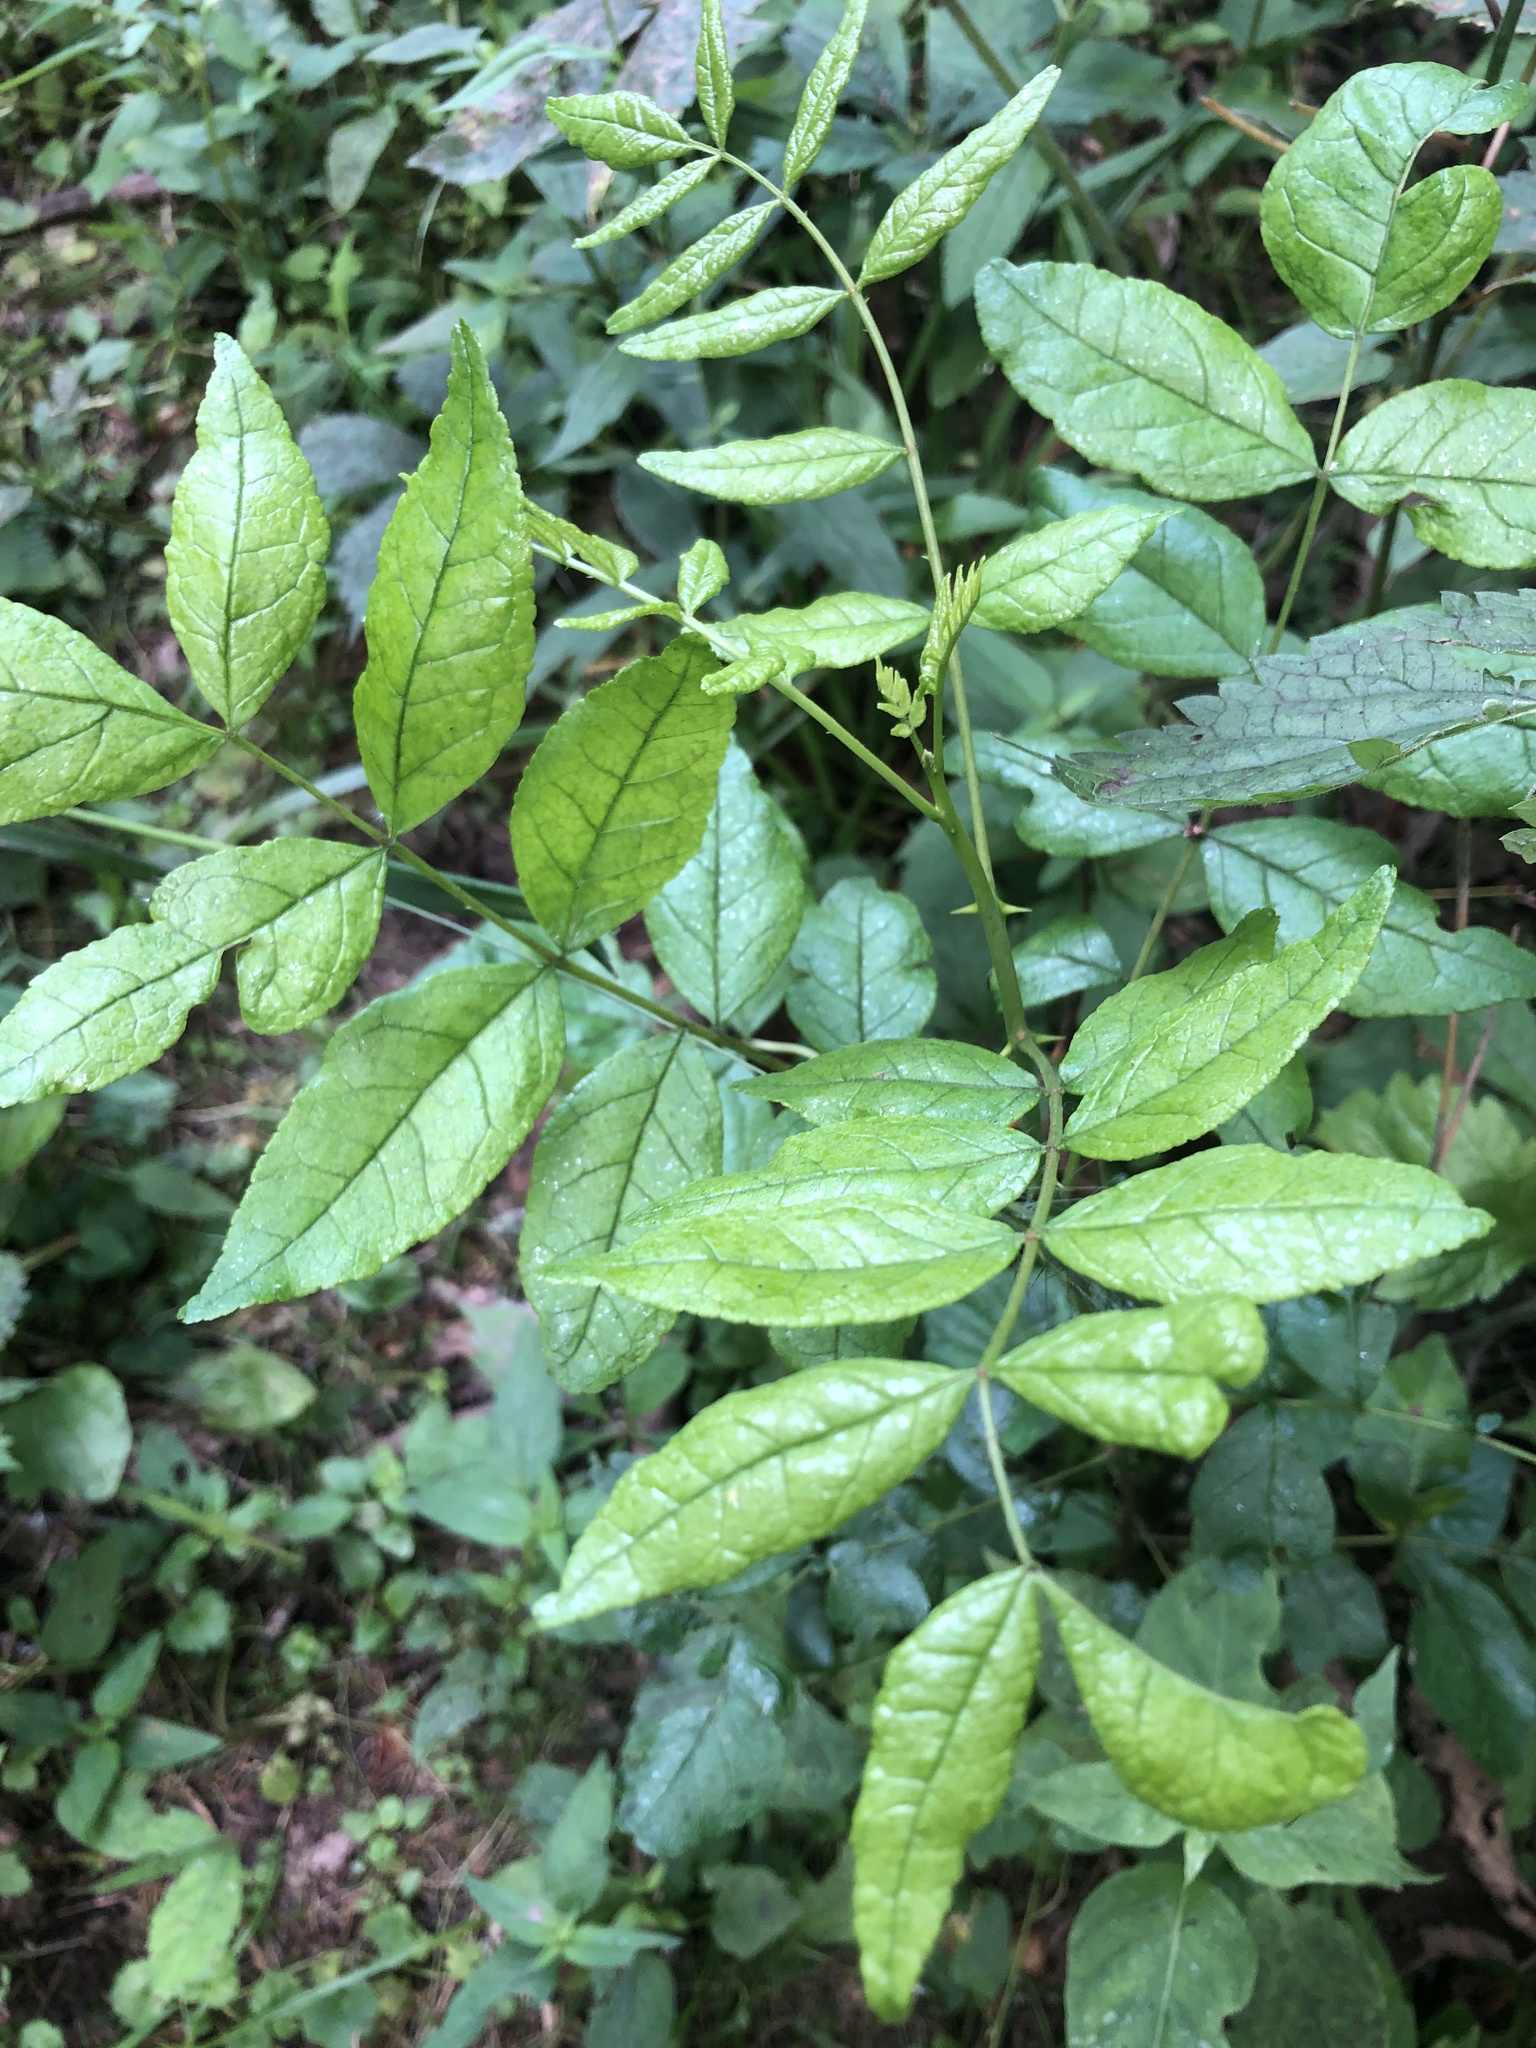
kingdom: Plantae
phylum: Tracheophyta
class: Magnoliopsida
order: Sapindales
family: Rutaceae
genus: Zanthoxylum
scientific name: Zanthoxylum americanum
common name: Northern prickly-ash
